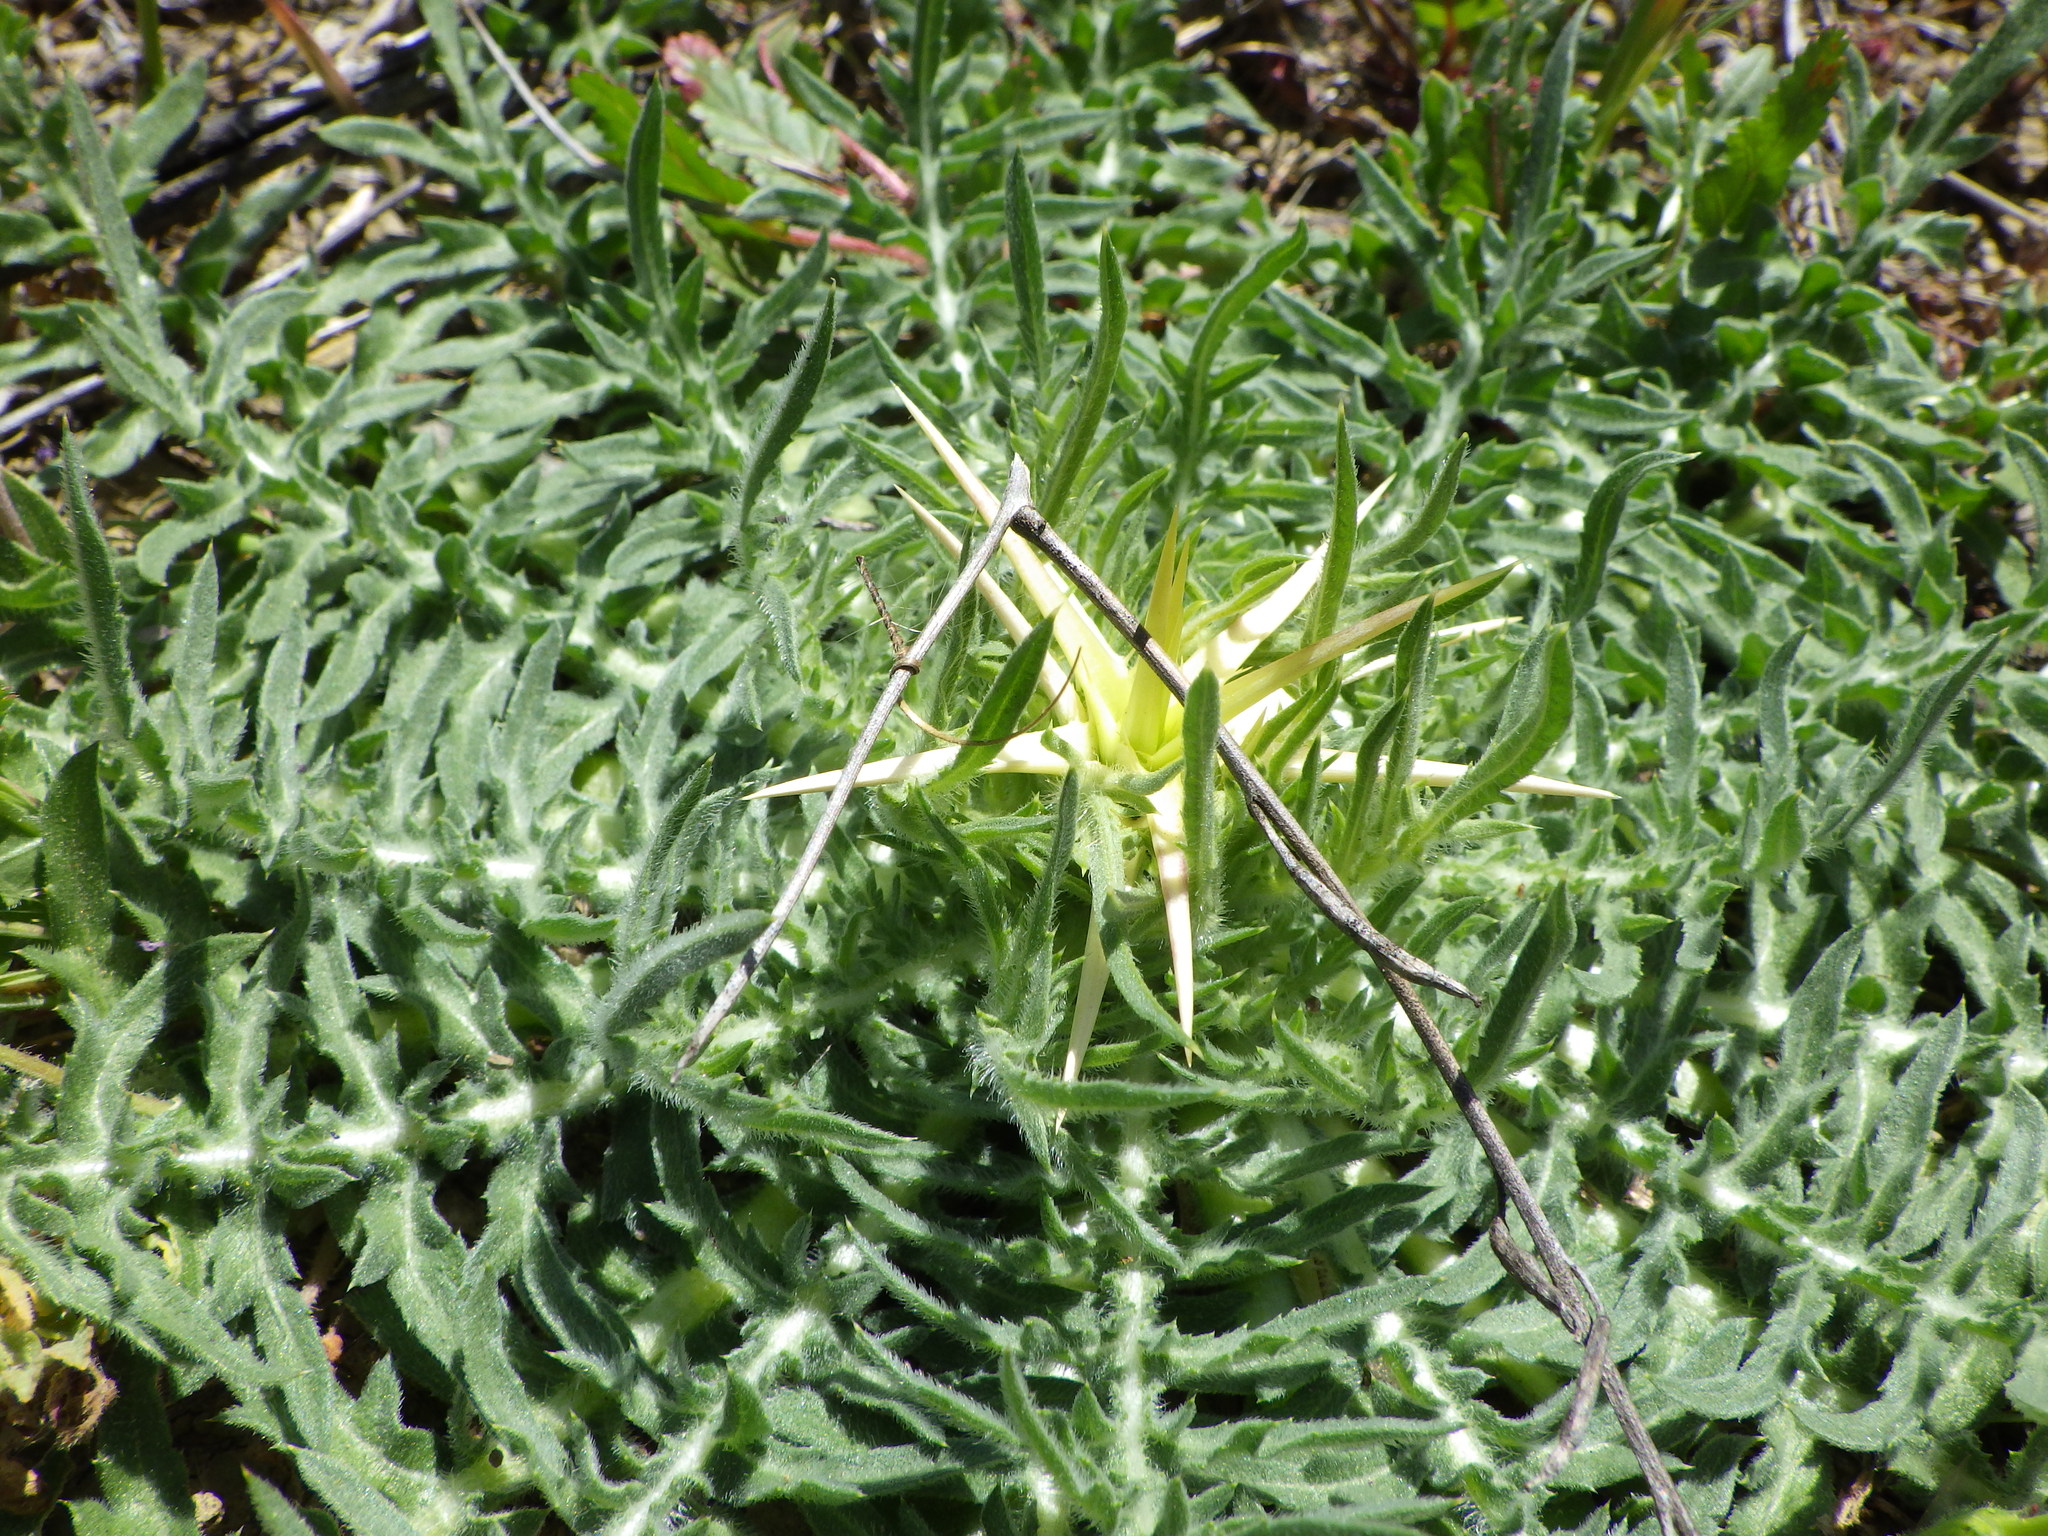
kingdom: Plantae
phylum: Tracheophyta
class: Magnoliopsida
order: Asterales
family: Asteraceae
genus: Centaurea
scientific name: Centaurea calcitrapa
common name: Red star-thistle
